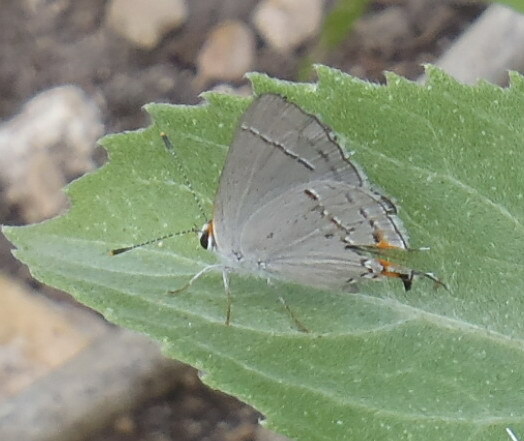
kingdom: Animalia
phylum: Arthropoda
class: Insecta
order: Lepidoptera
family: Lycaenidae
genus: Strymon
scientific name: Strymon melinus
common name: Gray hairstreak
